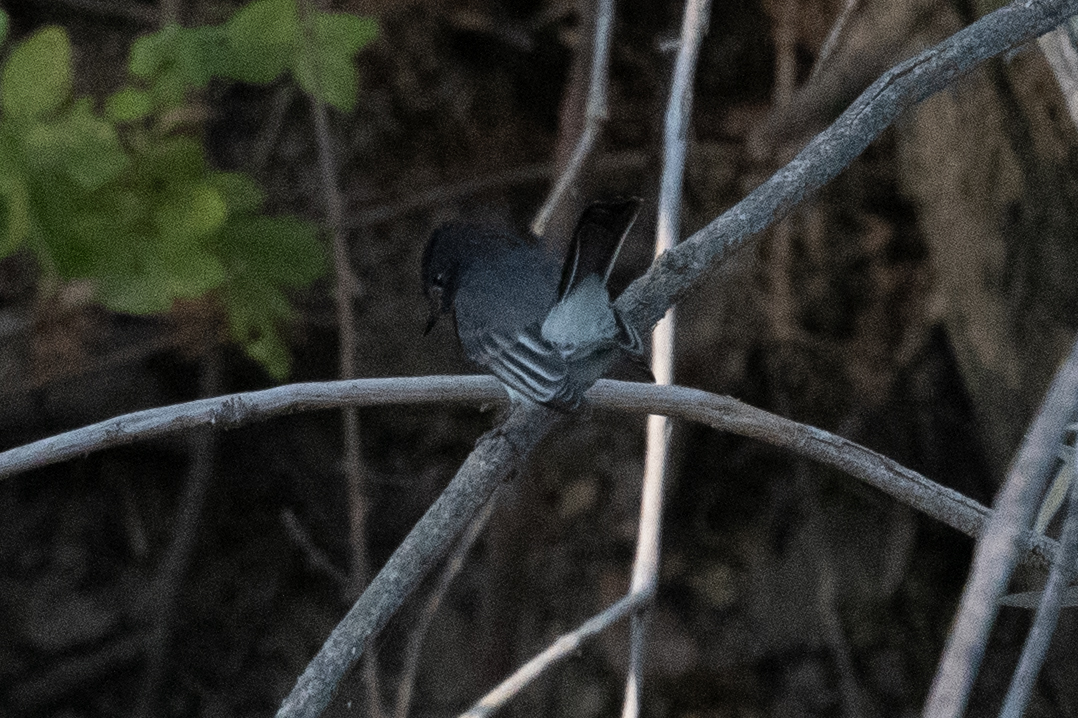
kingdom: Animalia
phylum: Chordata
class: Aves
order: Passeriformes
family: Tyrannidae
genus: Sayornis
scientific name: Sayornis nigricans
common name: Black phoebe
